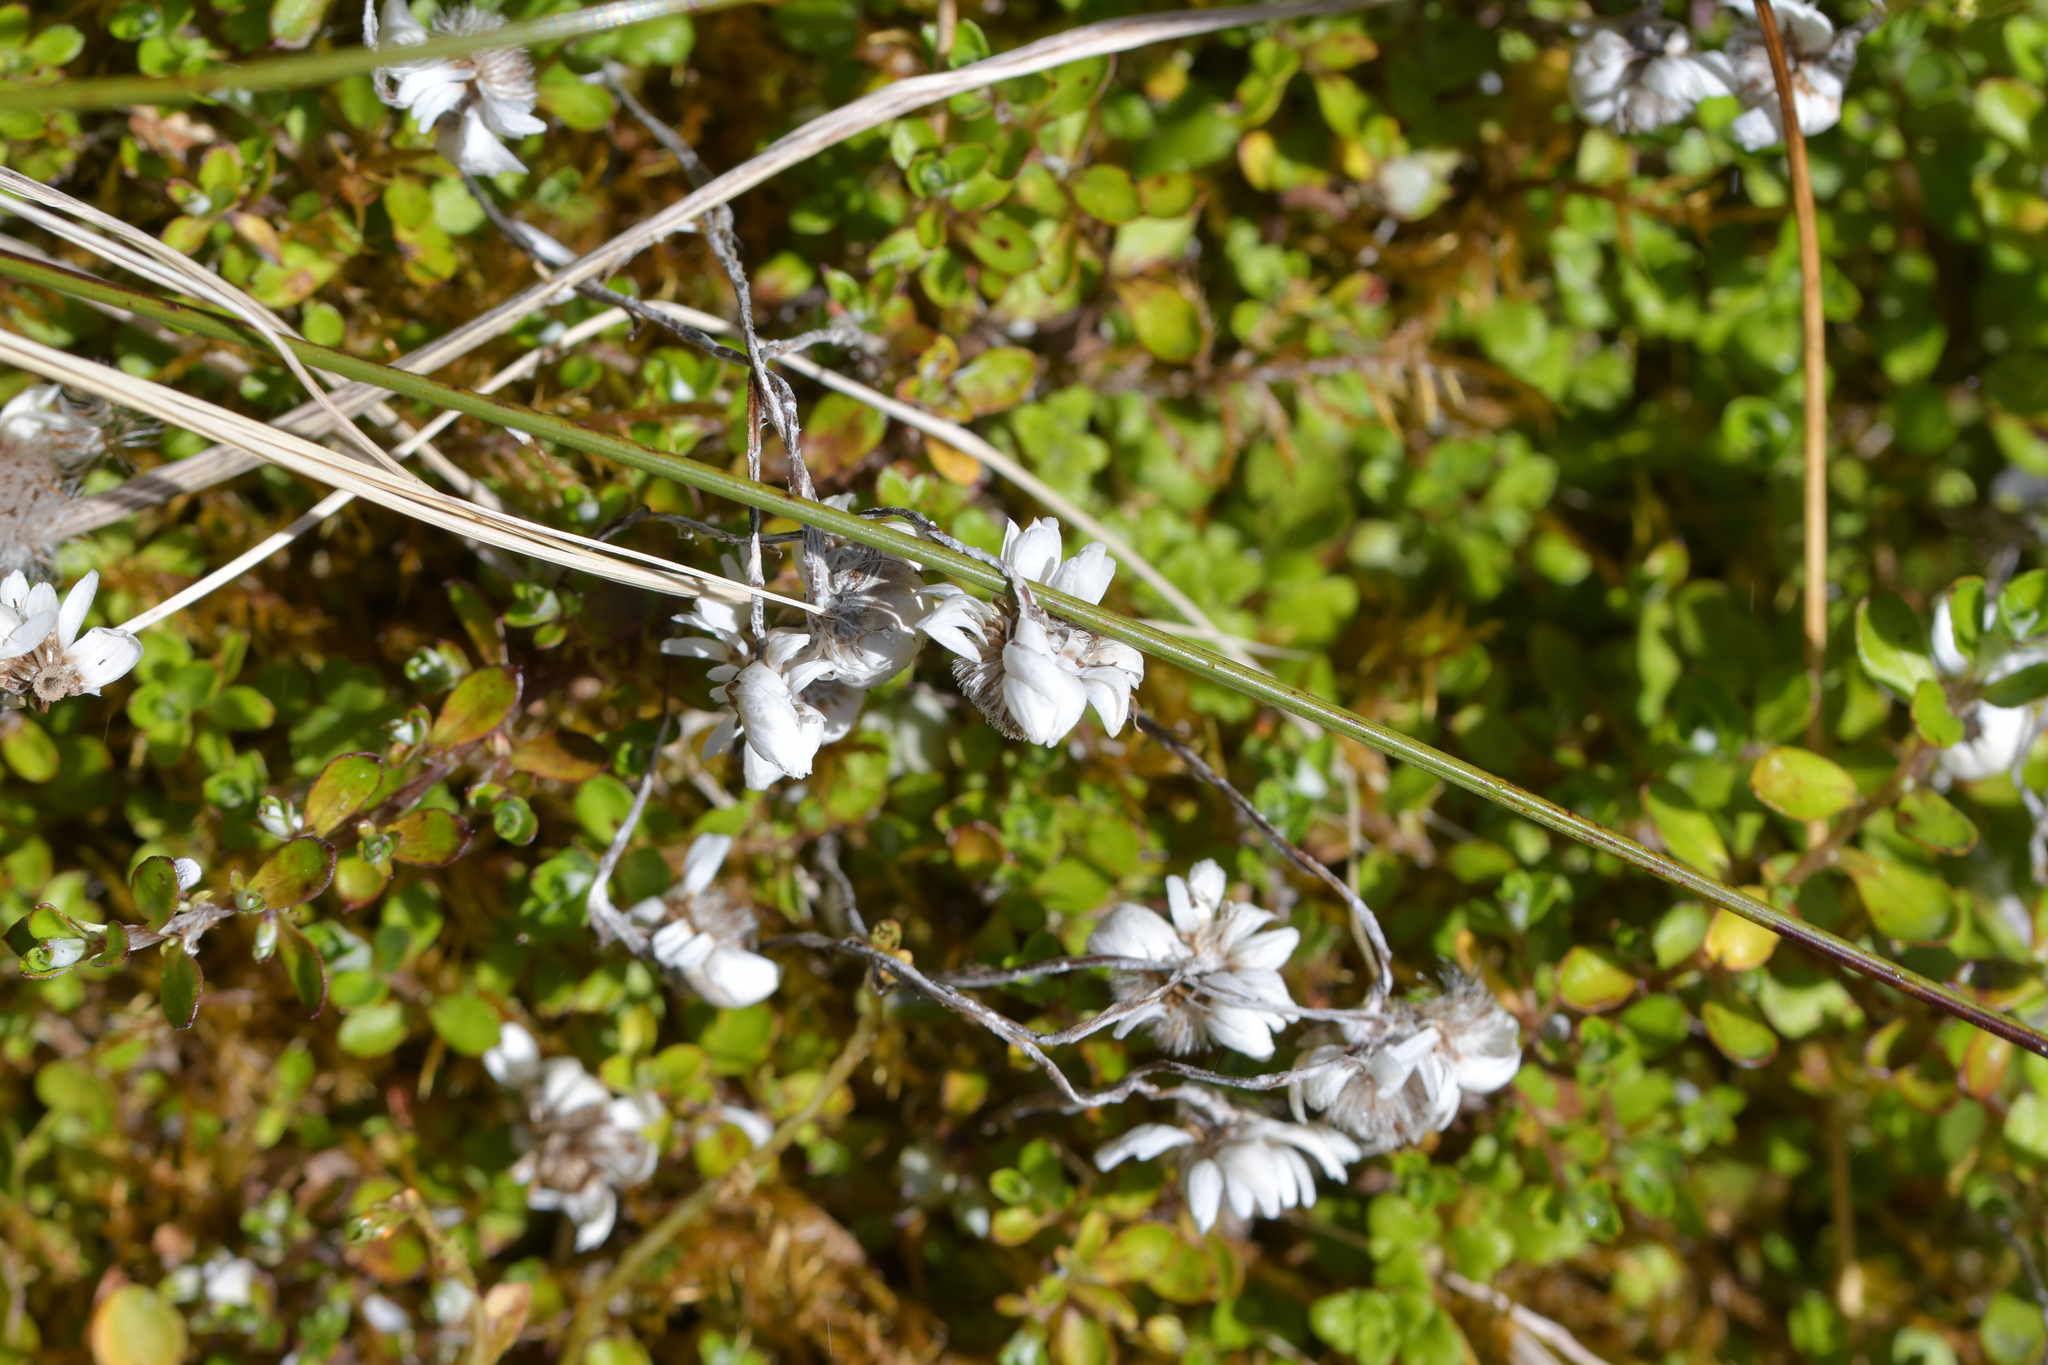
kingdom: Plantae
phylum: Tracheophyta
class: Magnoliopsida
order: Asterales
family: Asteraceae
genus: Anaphalioides
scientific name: Anaphalioides bellidioides
